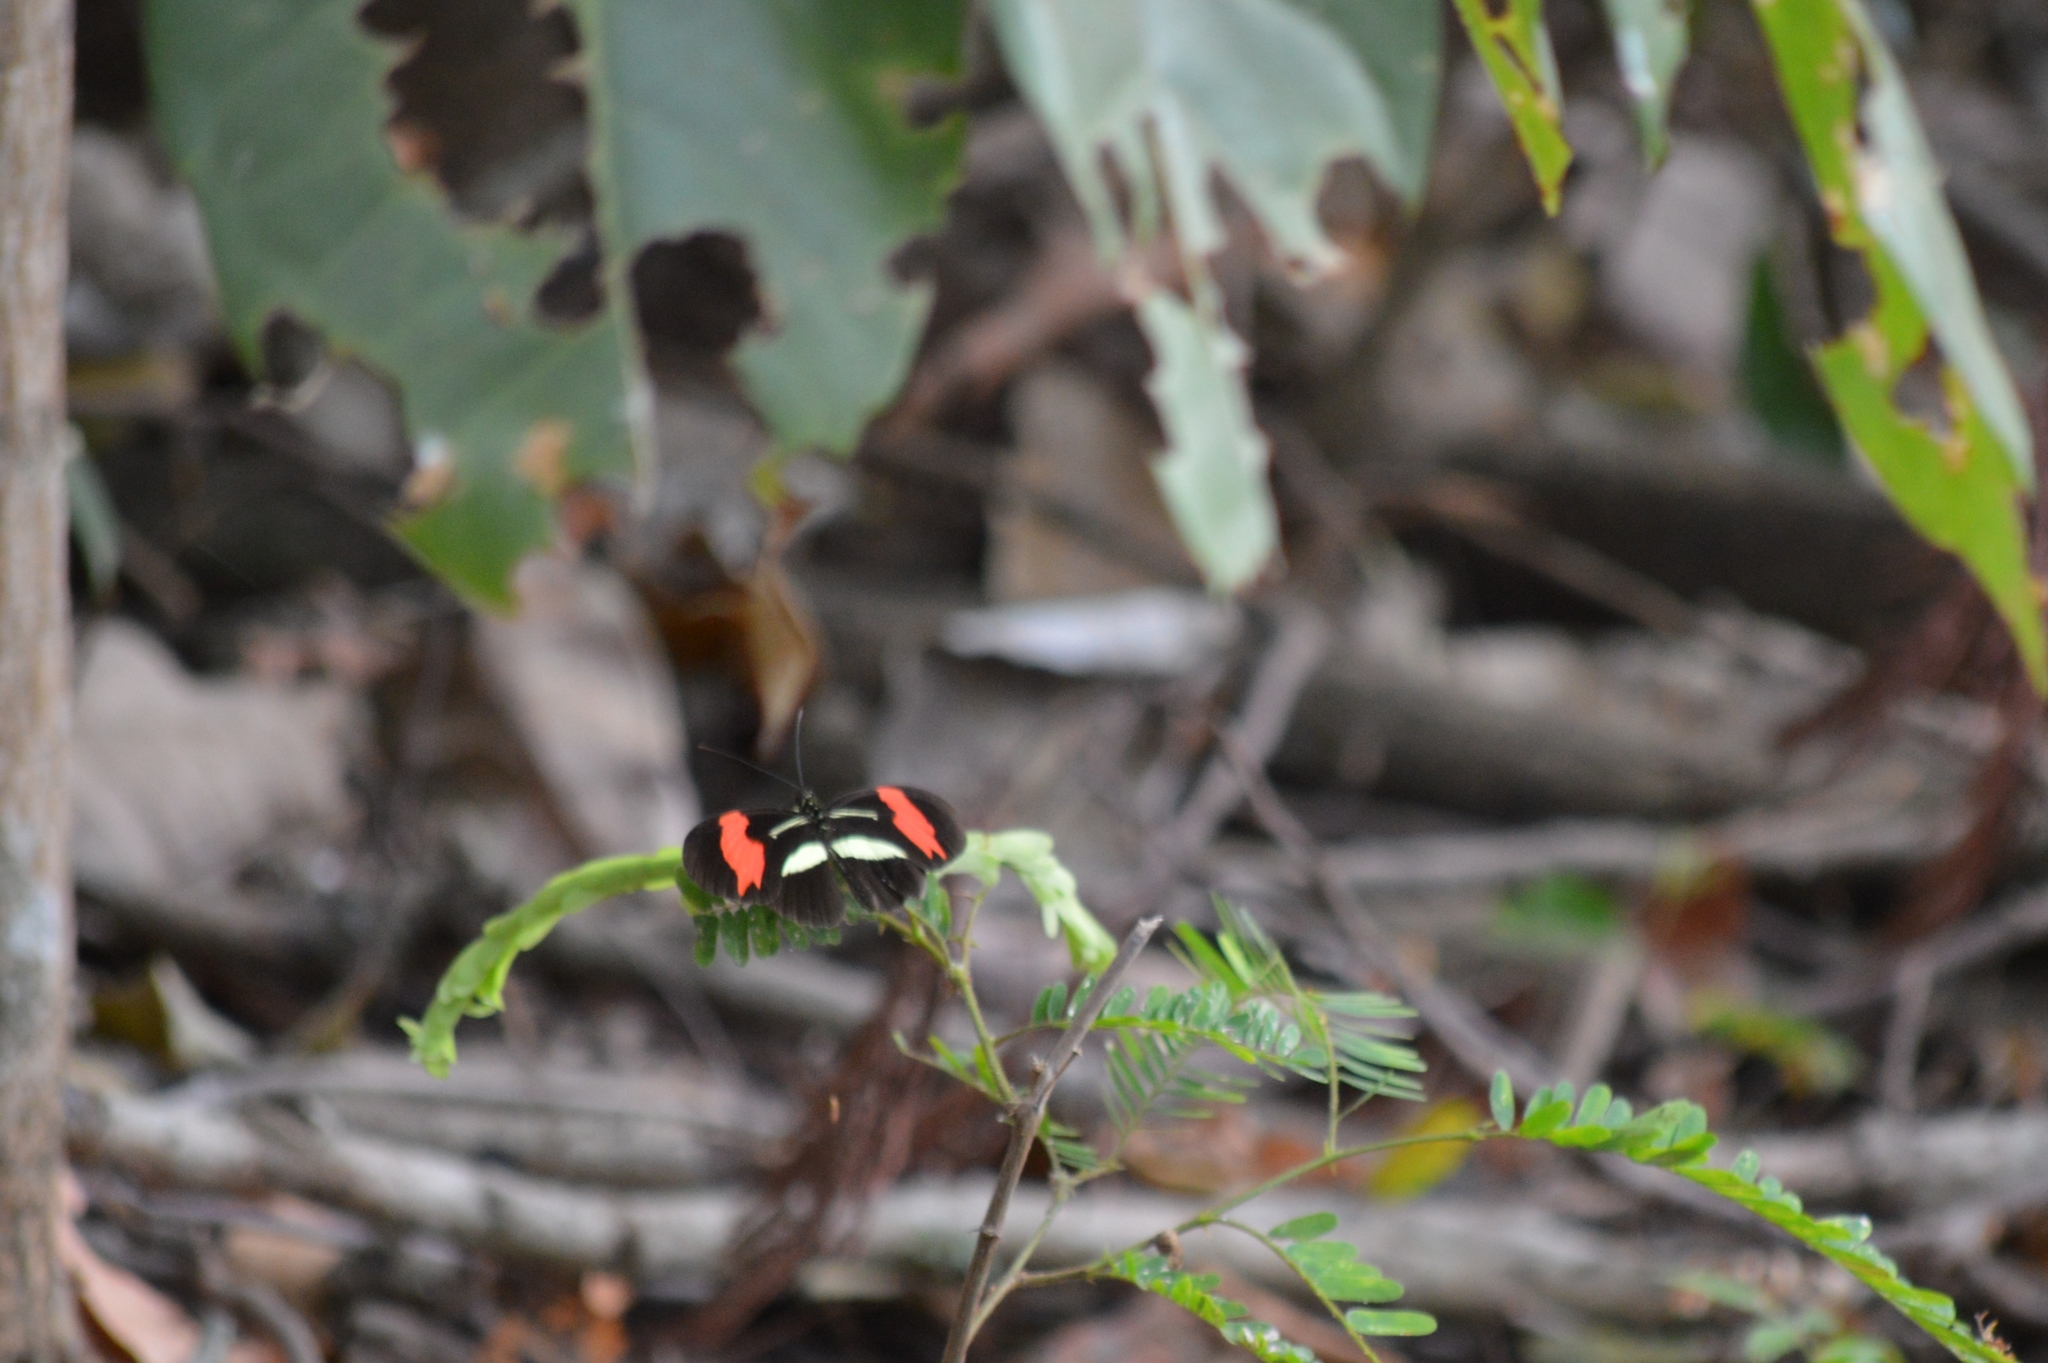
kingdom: Animalia
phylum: Arthropoda
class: Insecta
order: Lepidoptera
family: Nymphalidae
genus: Heliconius
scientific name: Heliconius erato
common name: Common patch longwing
